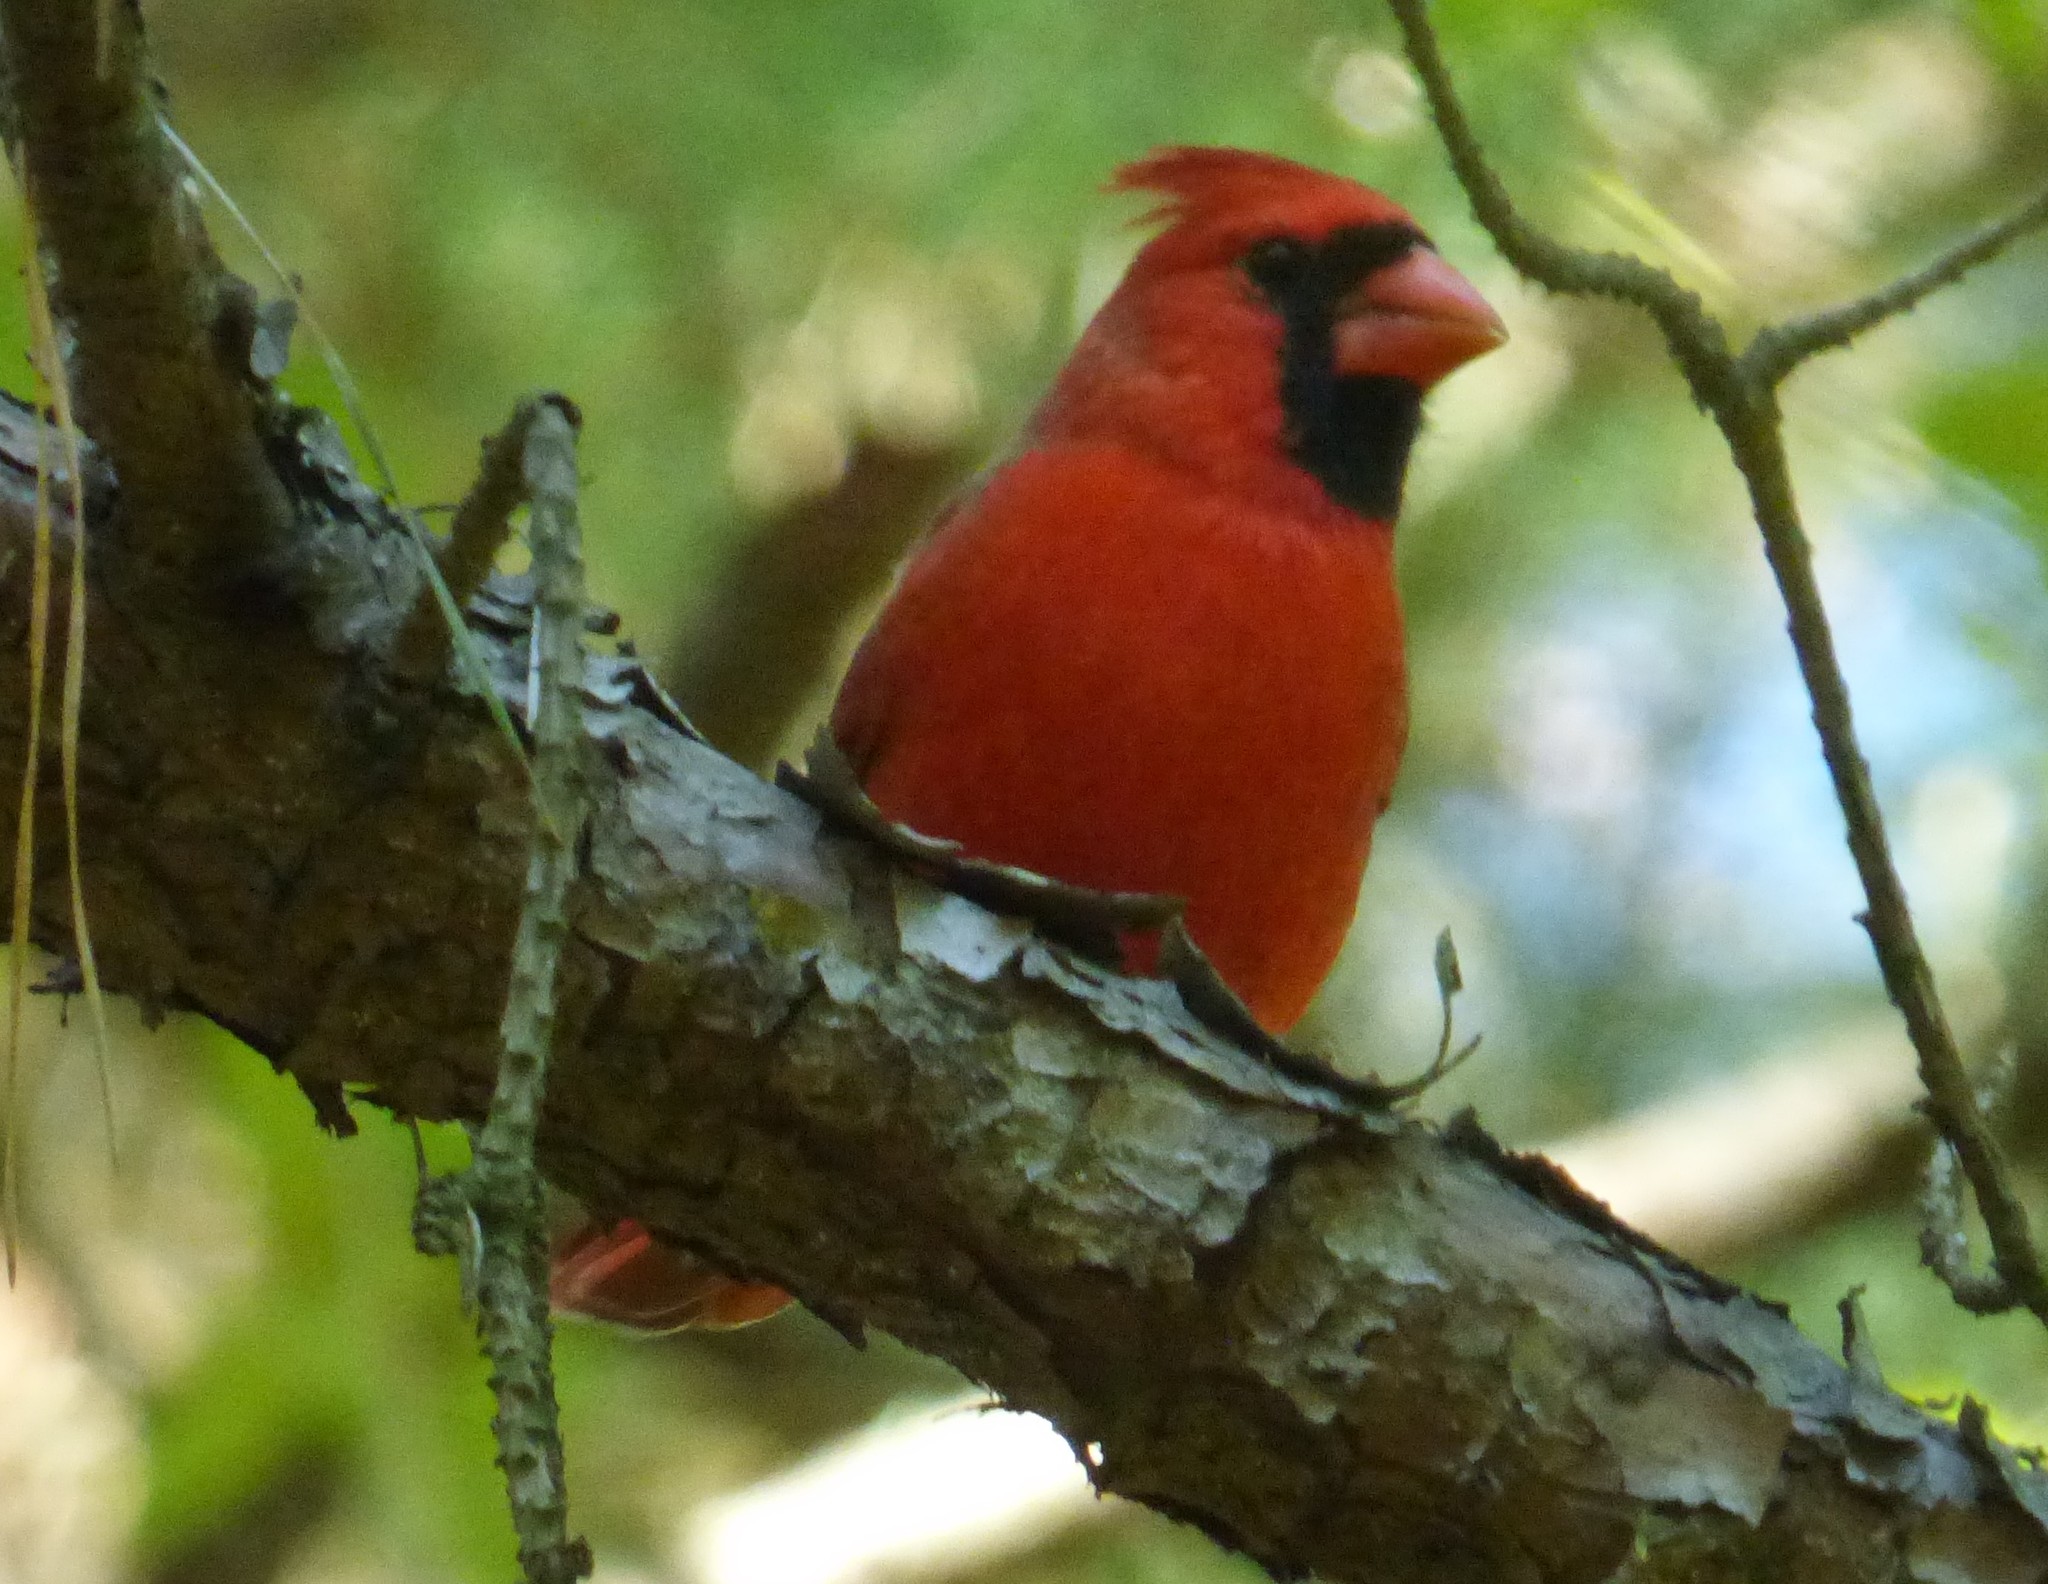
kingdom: Animalia
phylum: Chordata
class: Aves
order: Passeriformes
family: Cardinalidae
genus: Cardinalis
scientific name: Cardinalis cardinalis
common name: Northern cardinal
